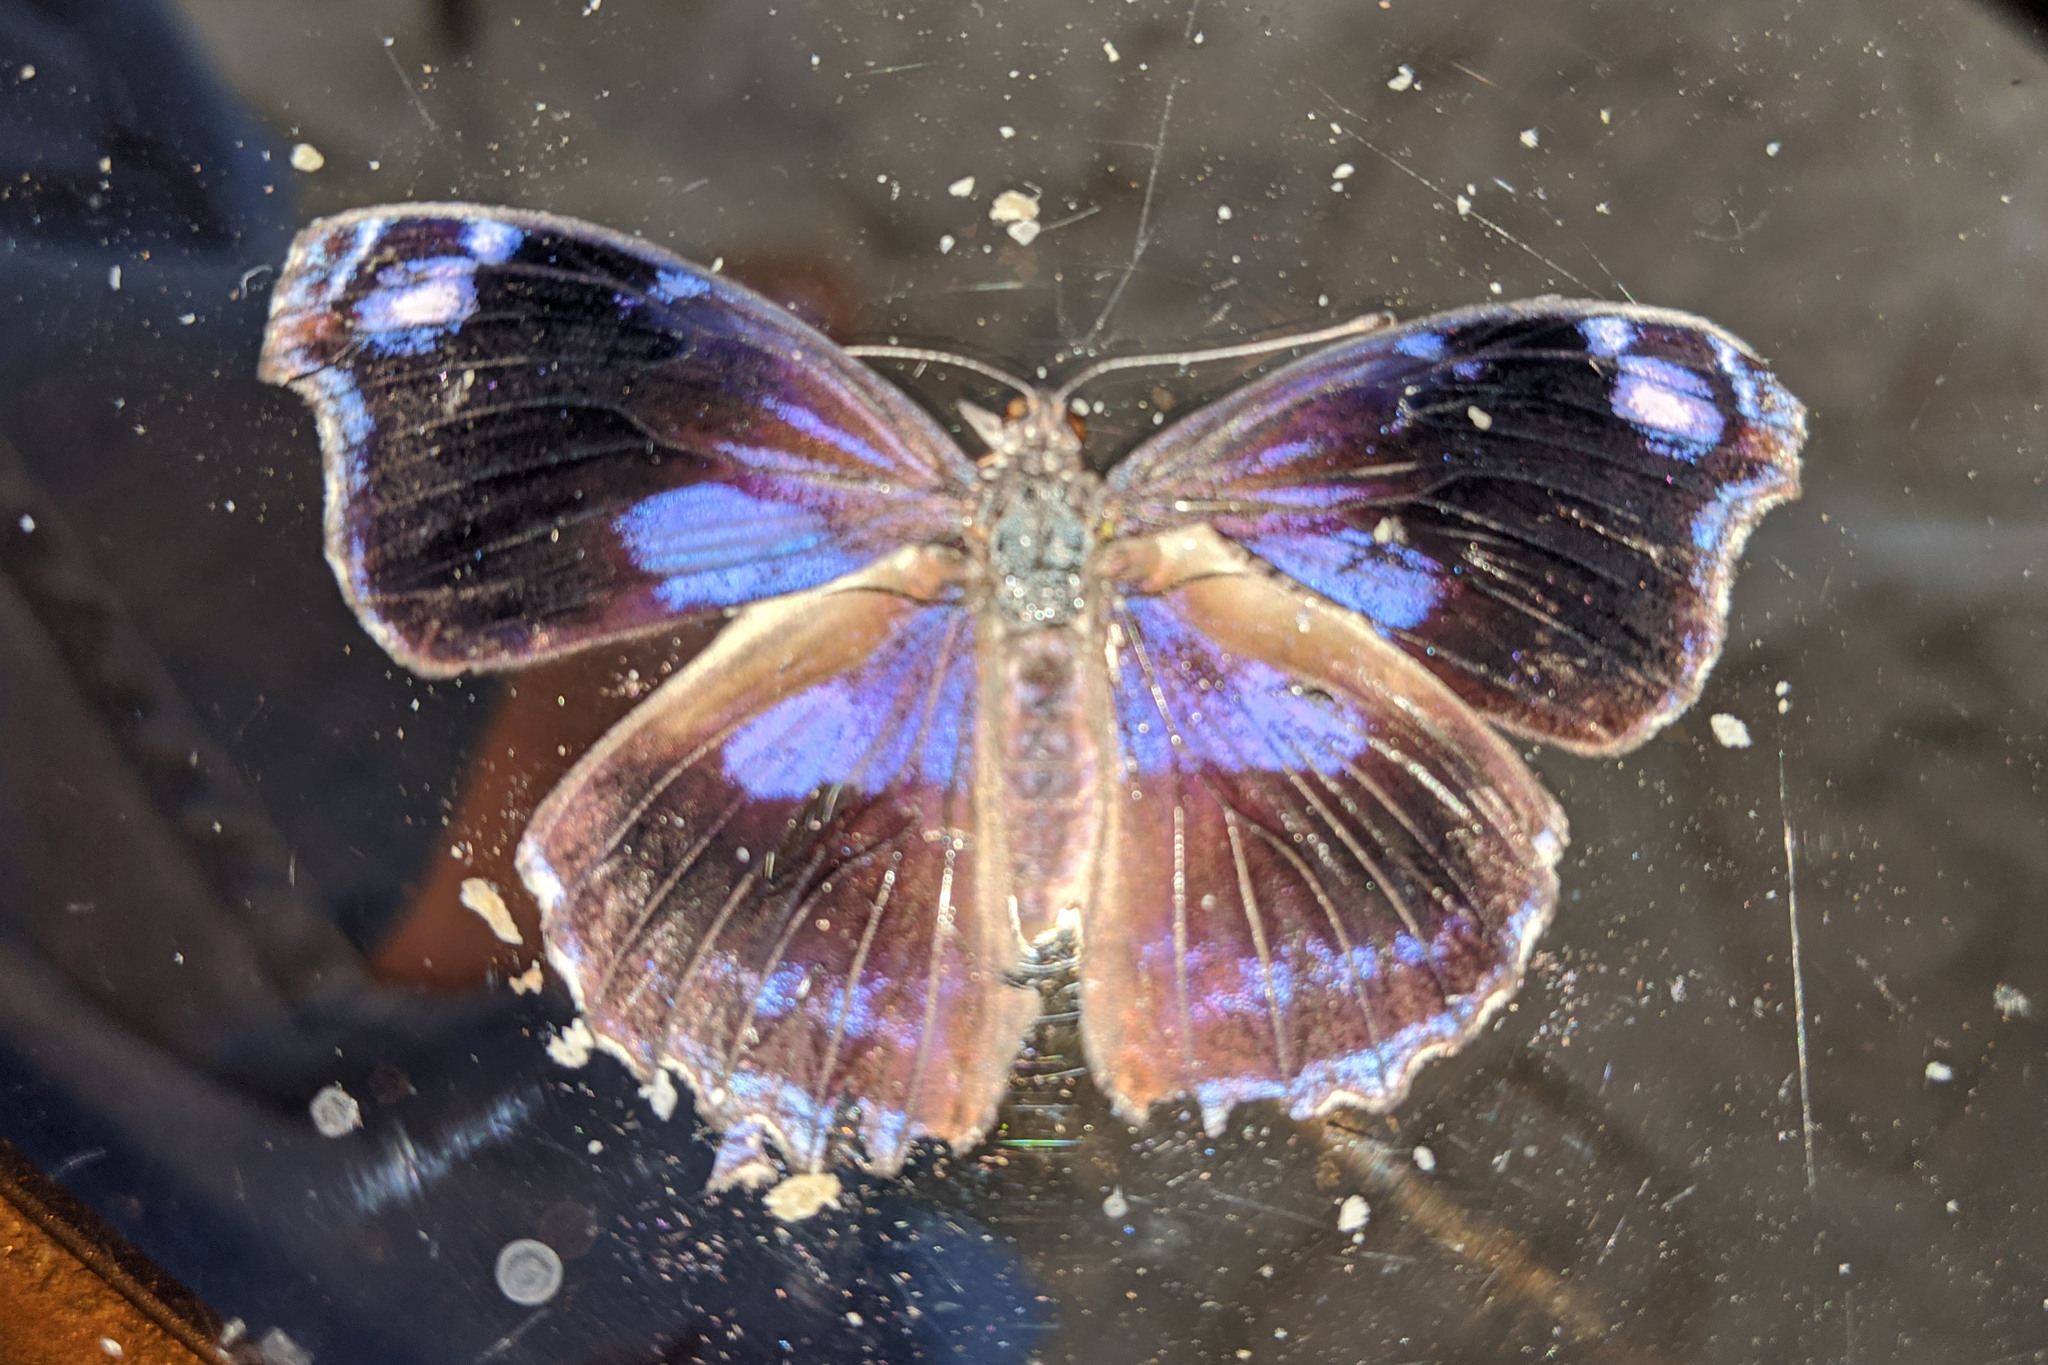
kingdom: Animalia
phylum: Arthropoda
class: Insecta
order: Lepidoptera
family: Nymphalidae
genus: Myscelia
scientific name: Myscelia cyananthe
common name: Blackened bluewing
